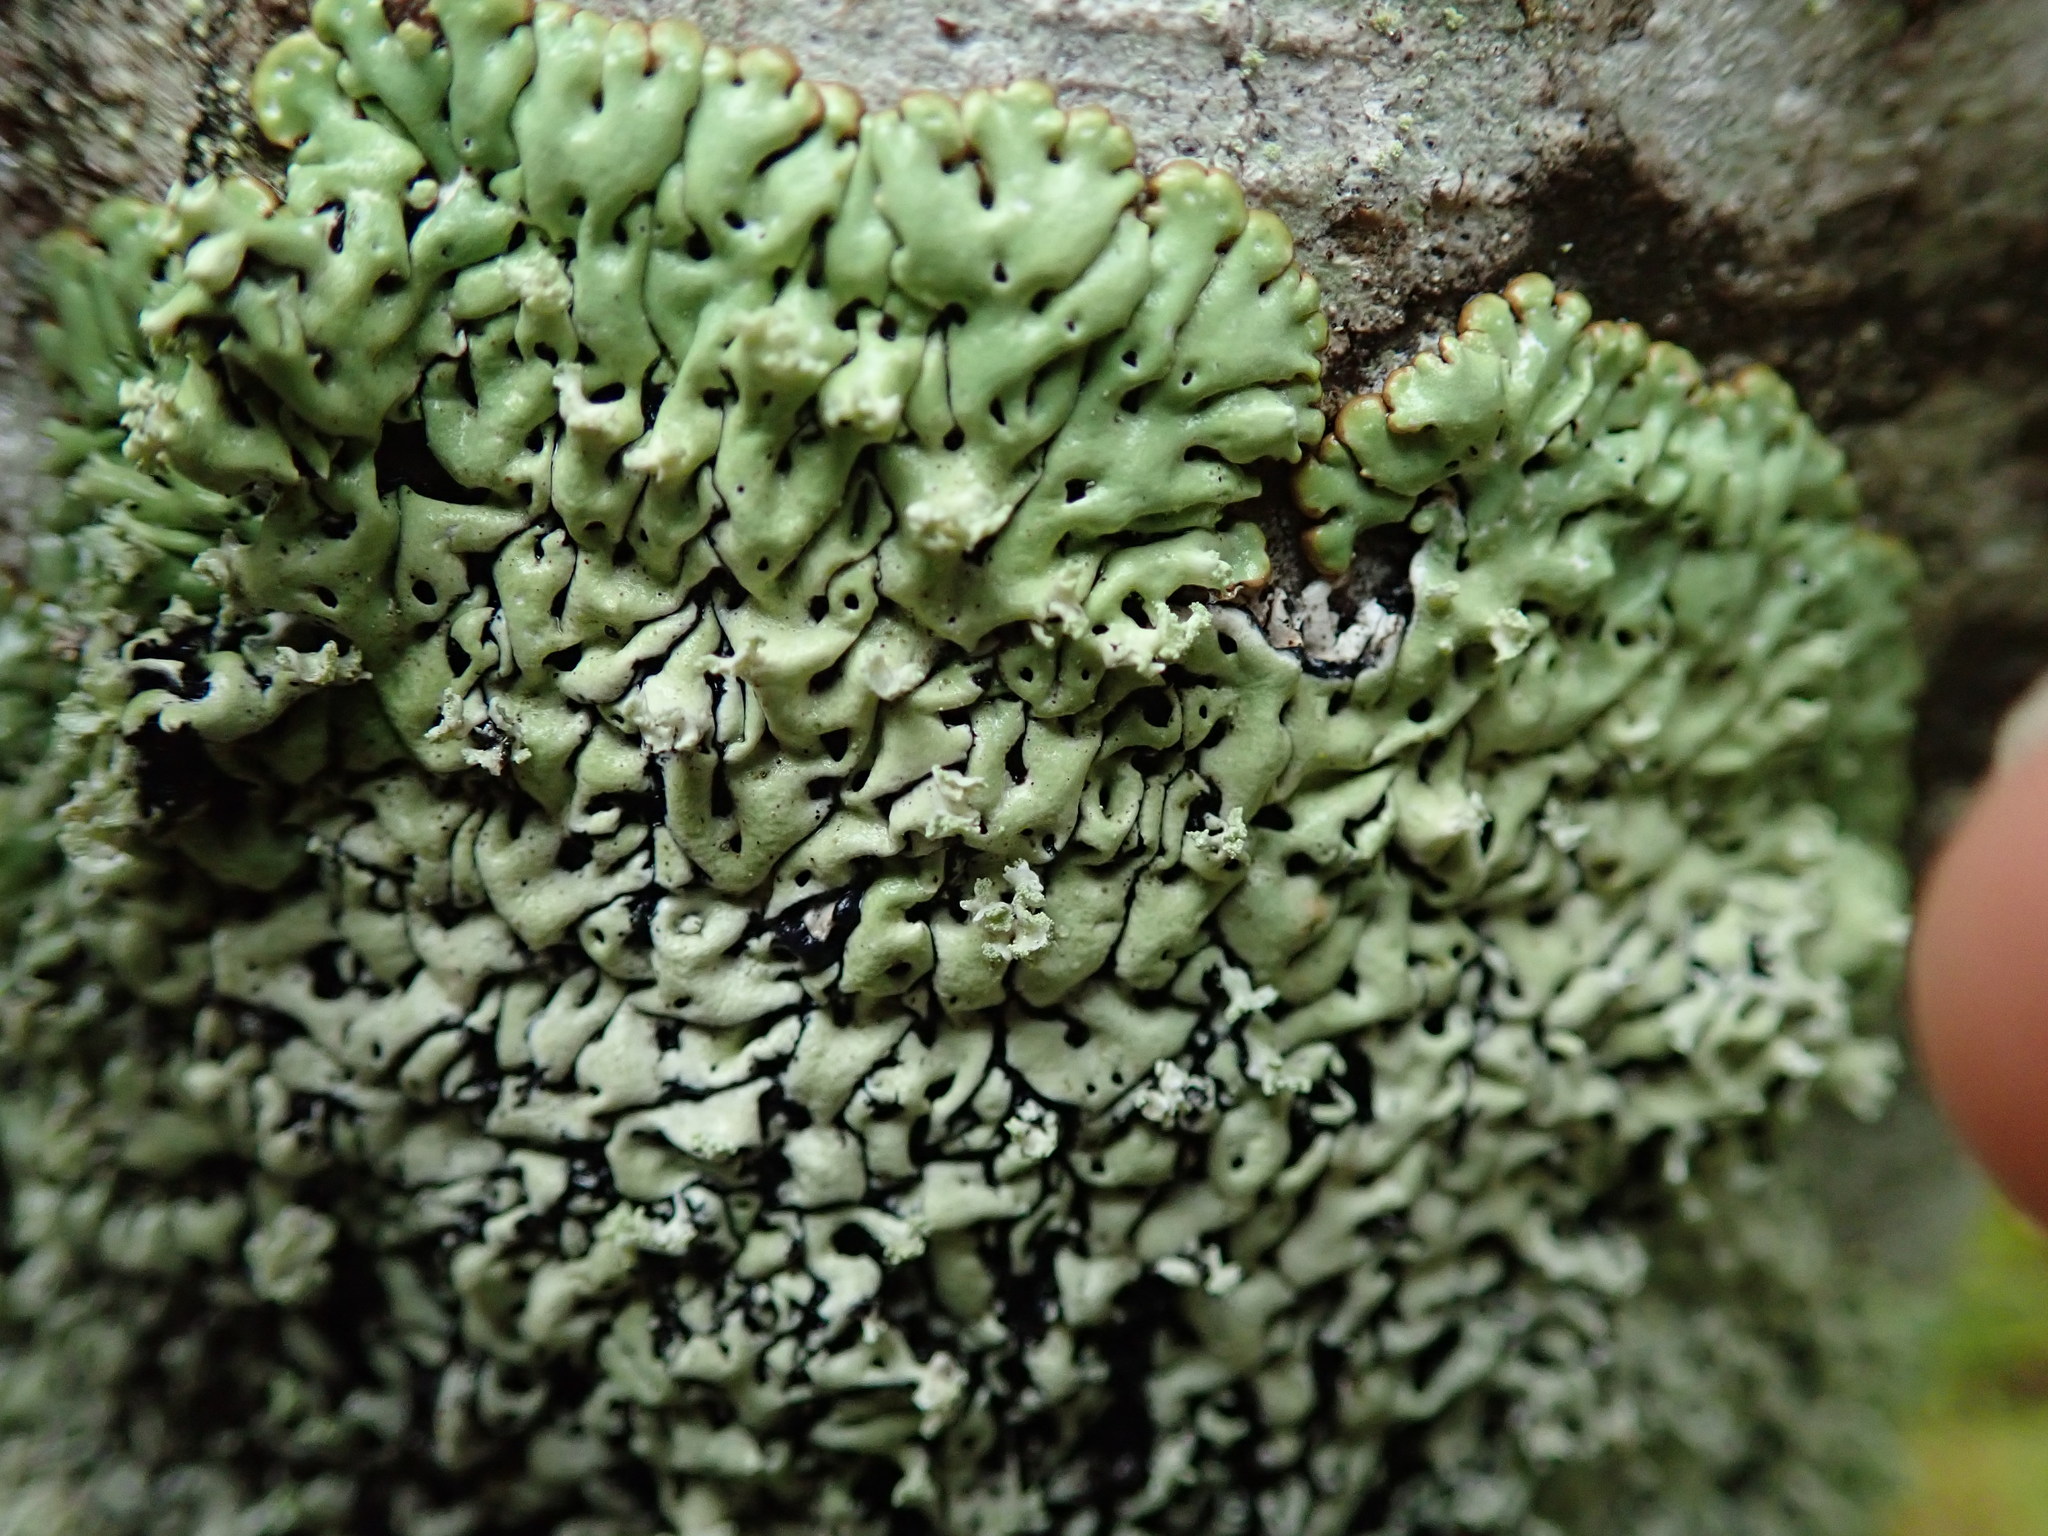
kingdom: Fungi
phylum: Ascomycota
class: Lecanoromycetes
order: Lecanorales
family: Parmeliaceae
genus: Menegazzia
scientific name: Menegazzia terebrata
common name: Magic treeflute lichen
